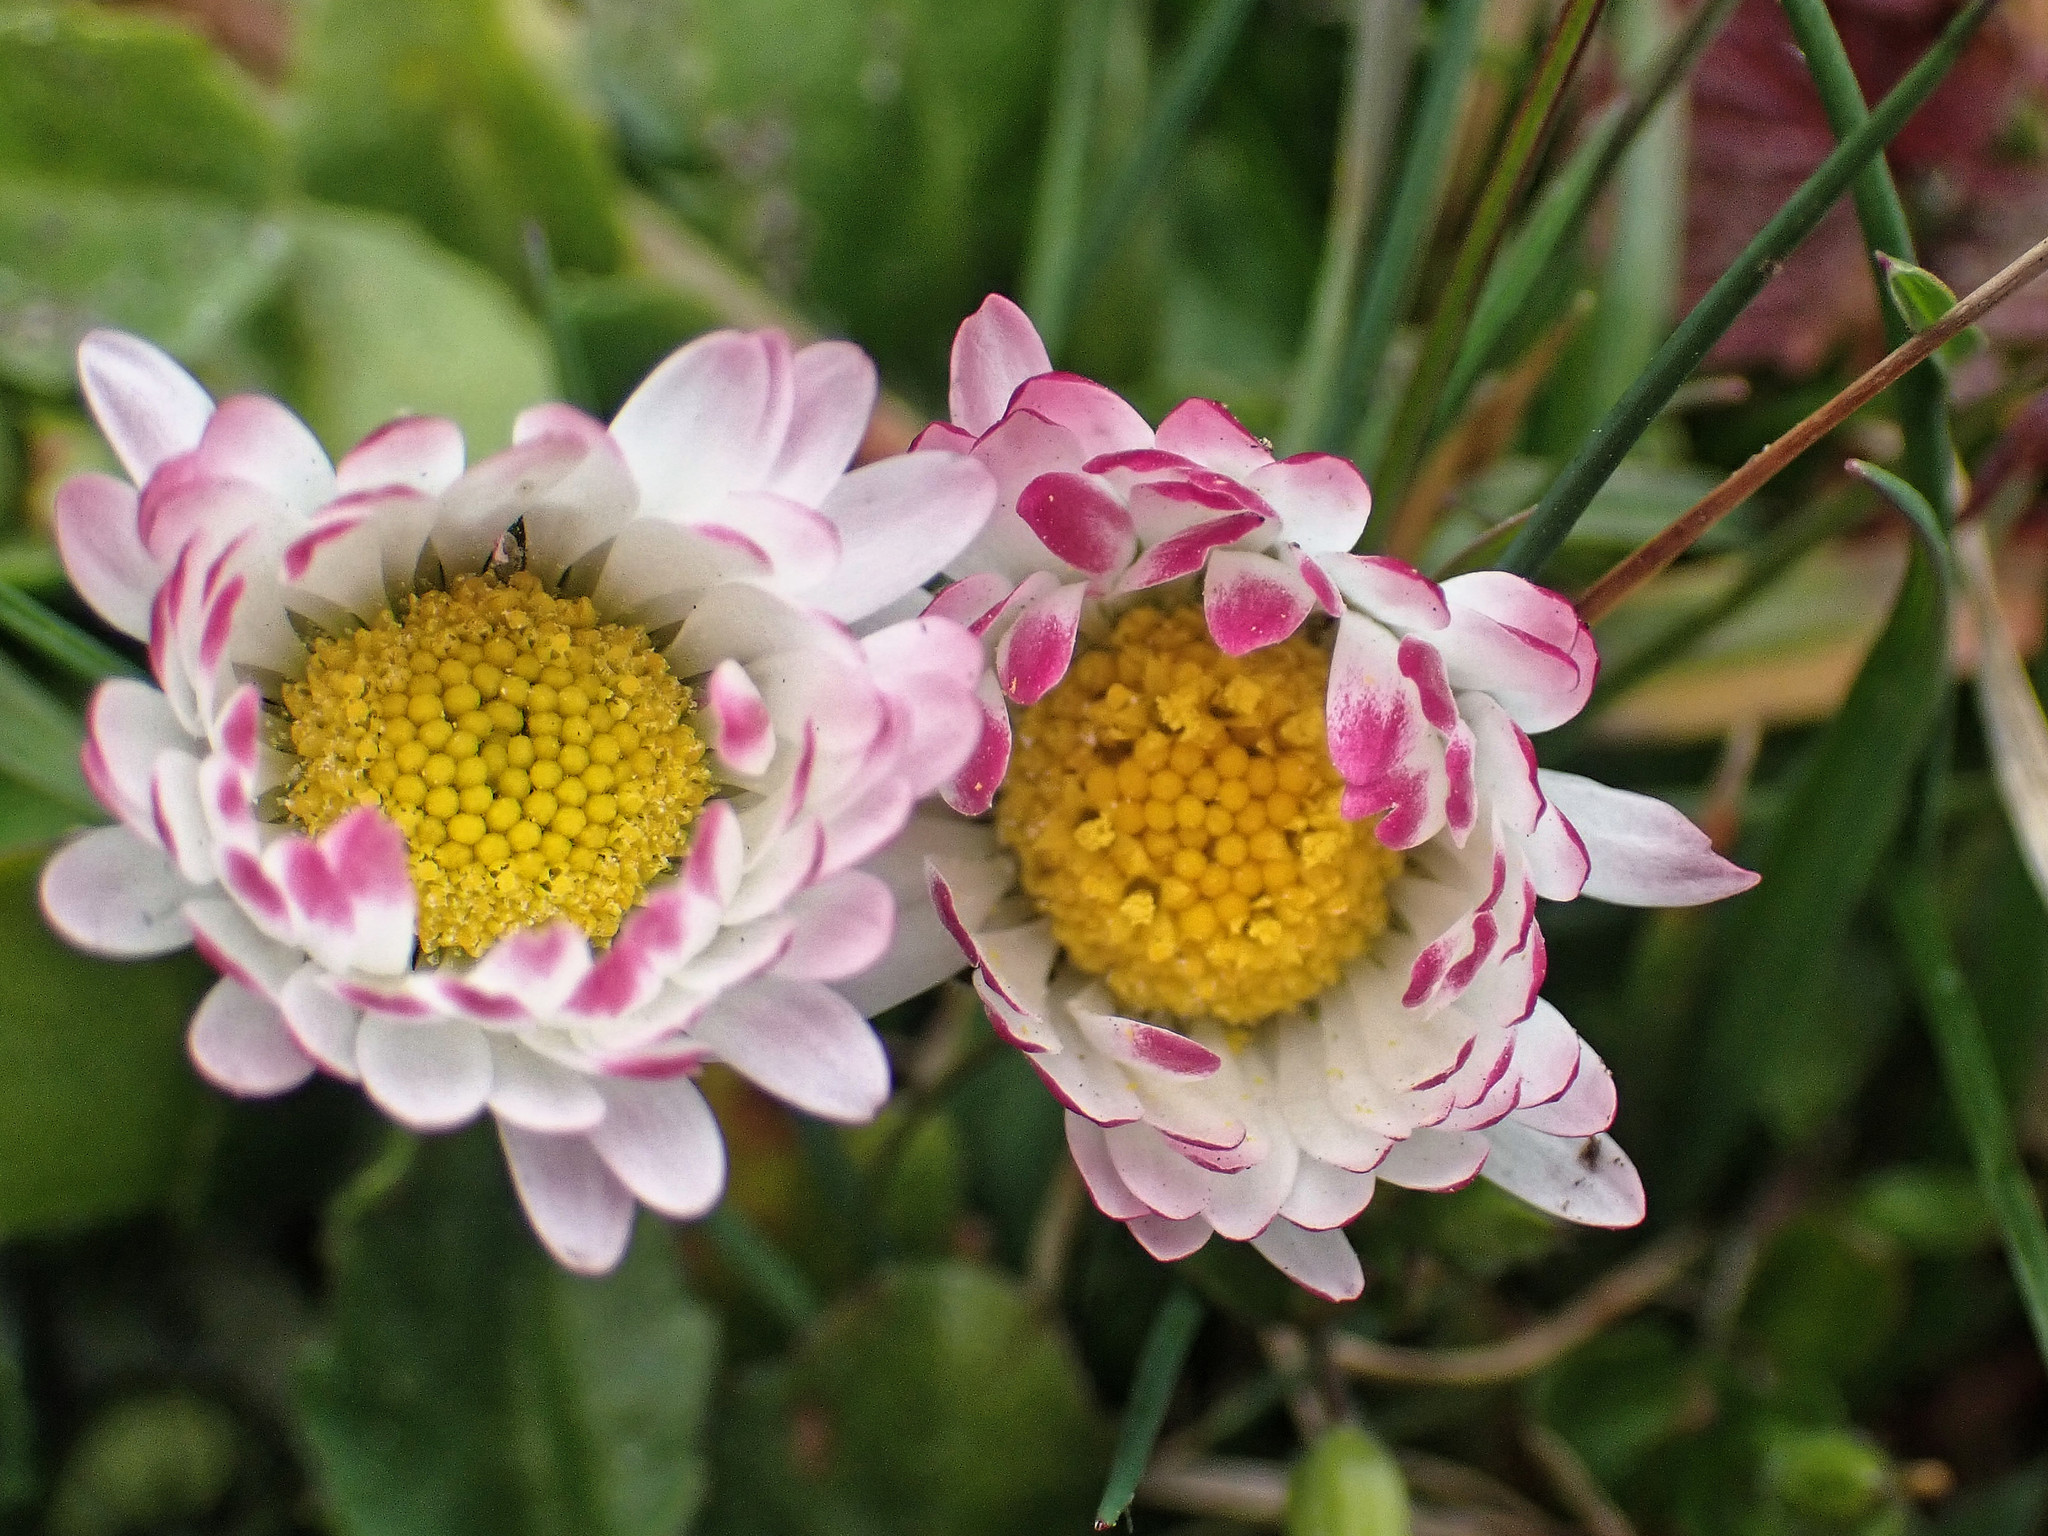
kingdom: Plantae
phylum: Tracheophyta
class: Magnoliopsida
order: Asterales
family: Asteraceae
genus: Bellis
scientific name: Bellis perennis
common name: Lawndaisy
